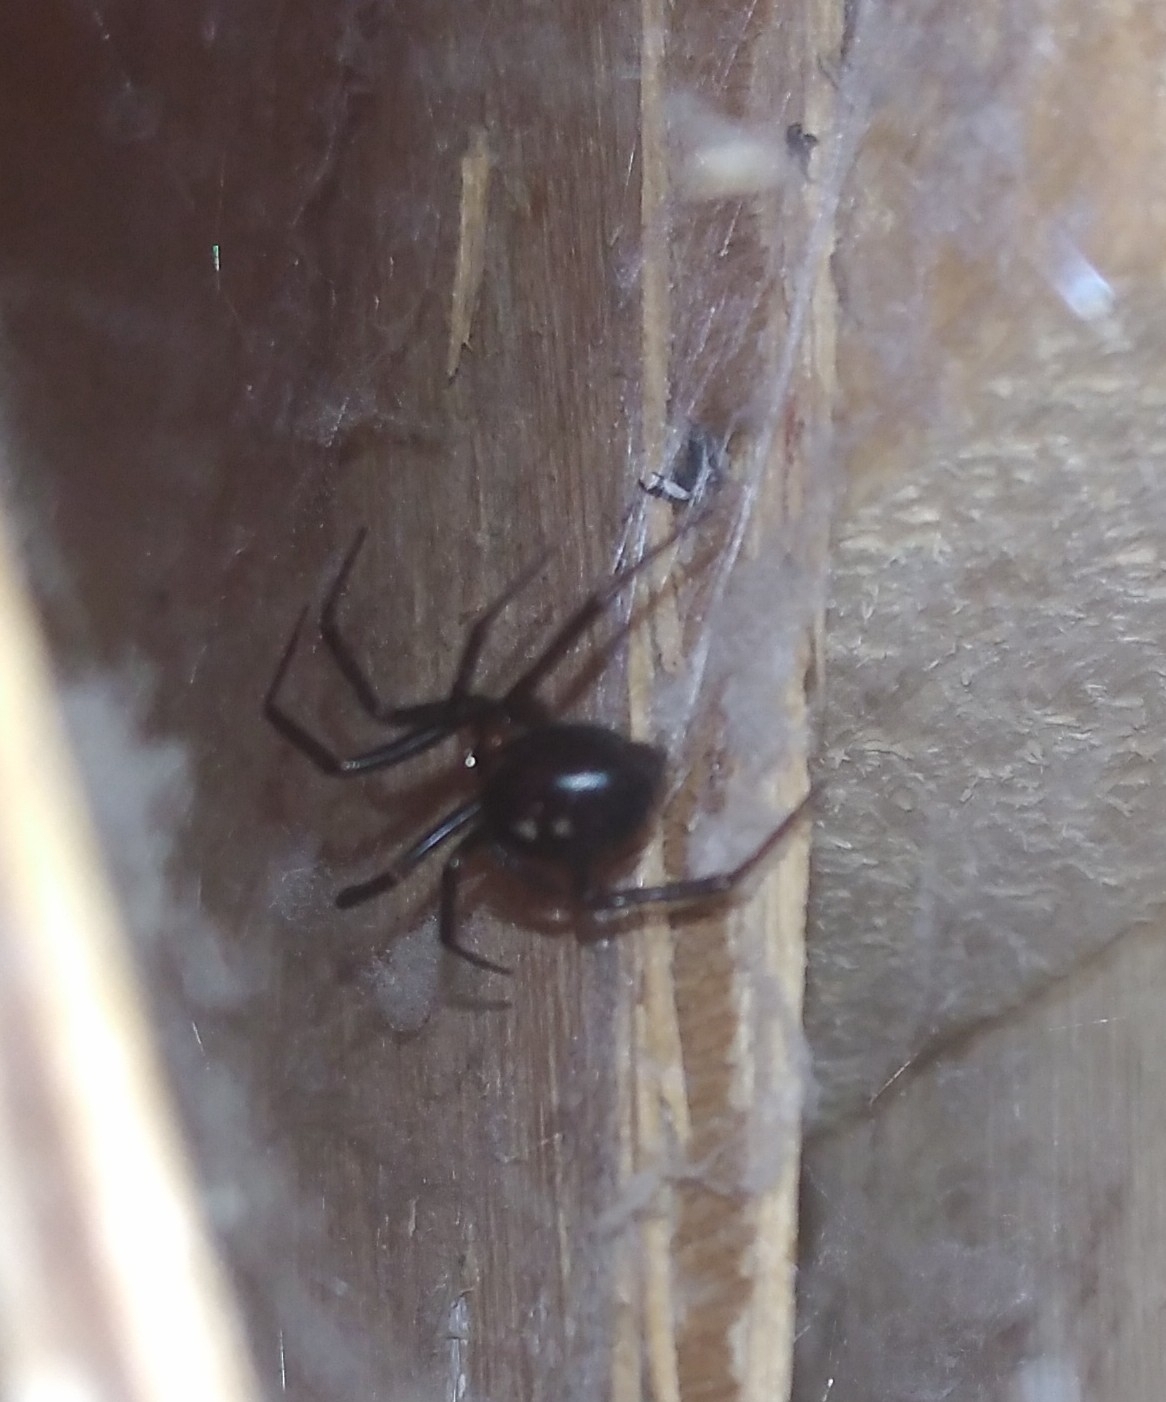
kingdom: Animalia
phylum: Arthropoda
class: Arachnida
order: Araneae
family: Theridiidae
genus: Steatoda
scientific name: Steatoda grossa
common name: False black widow
